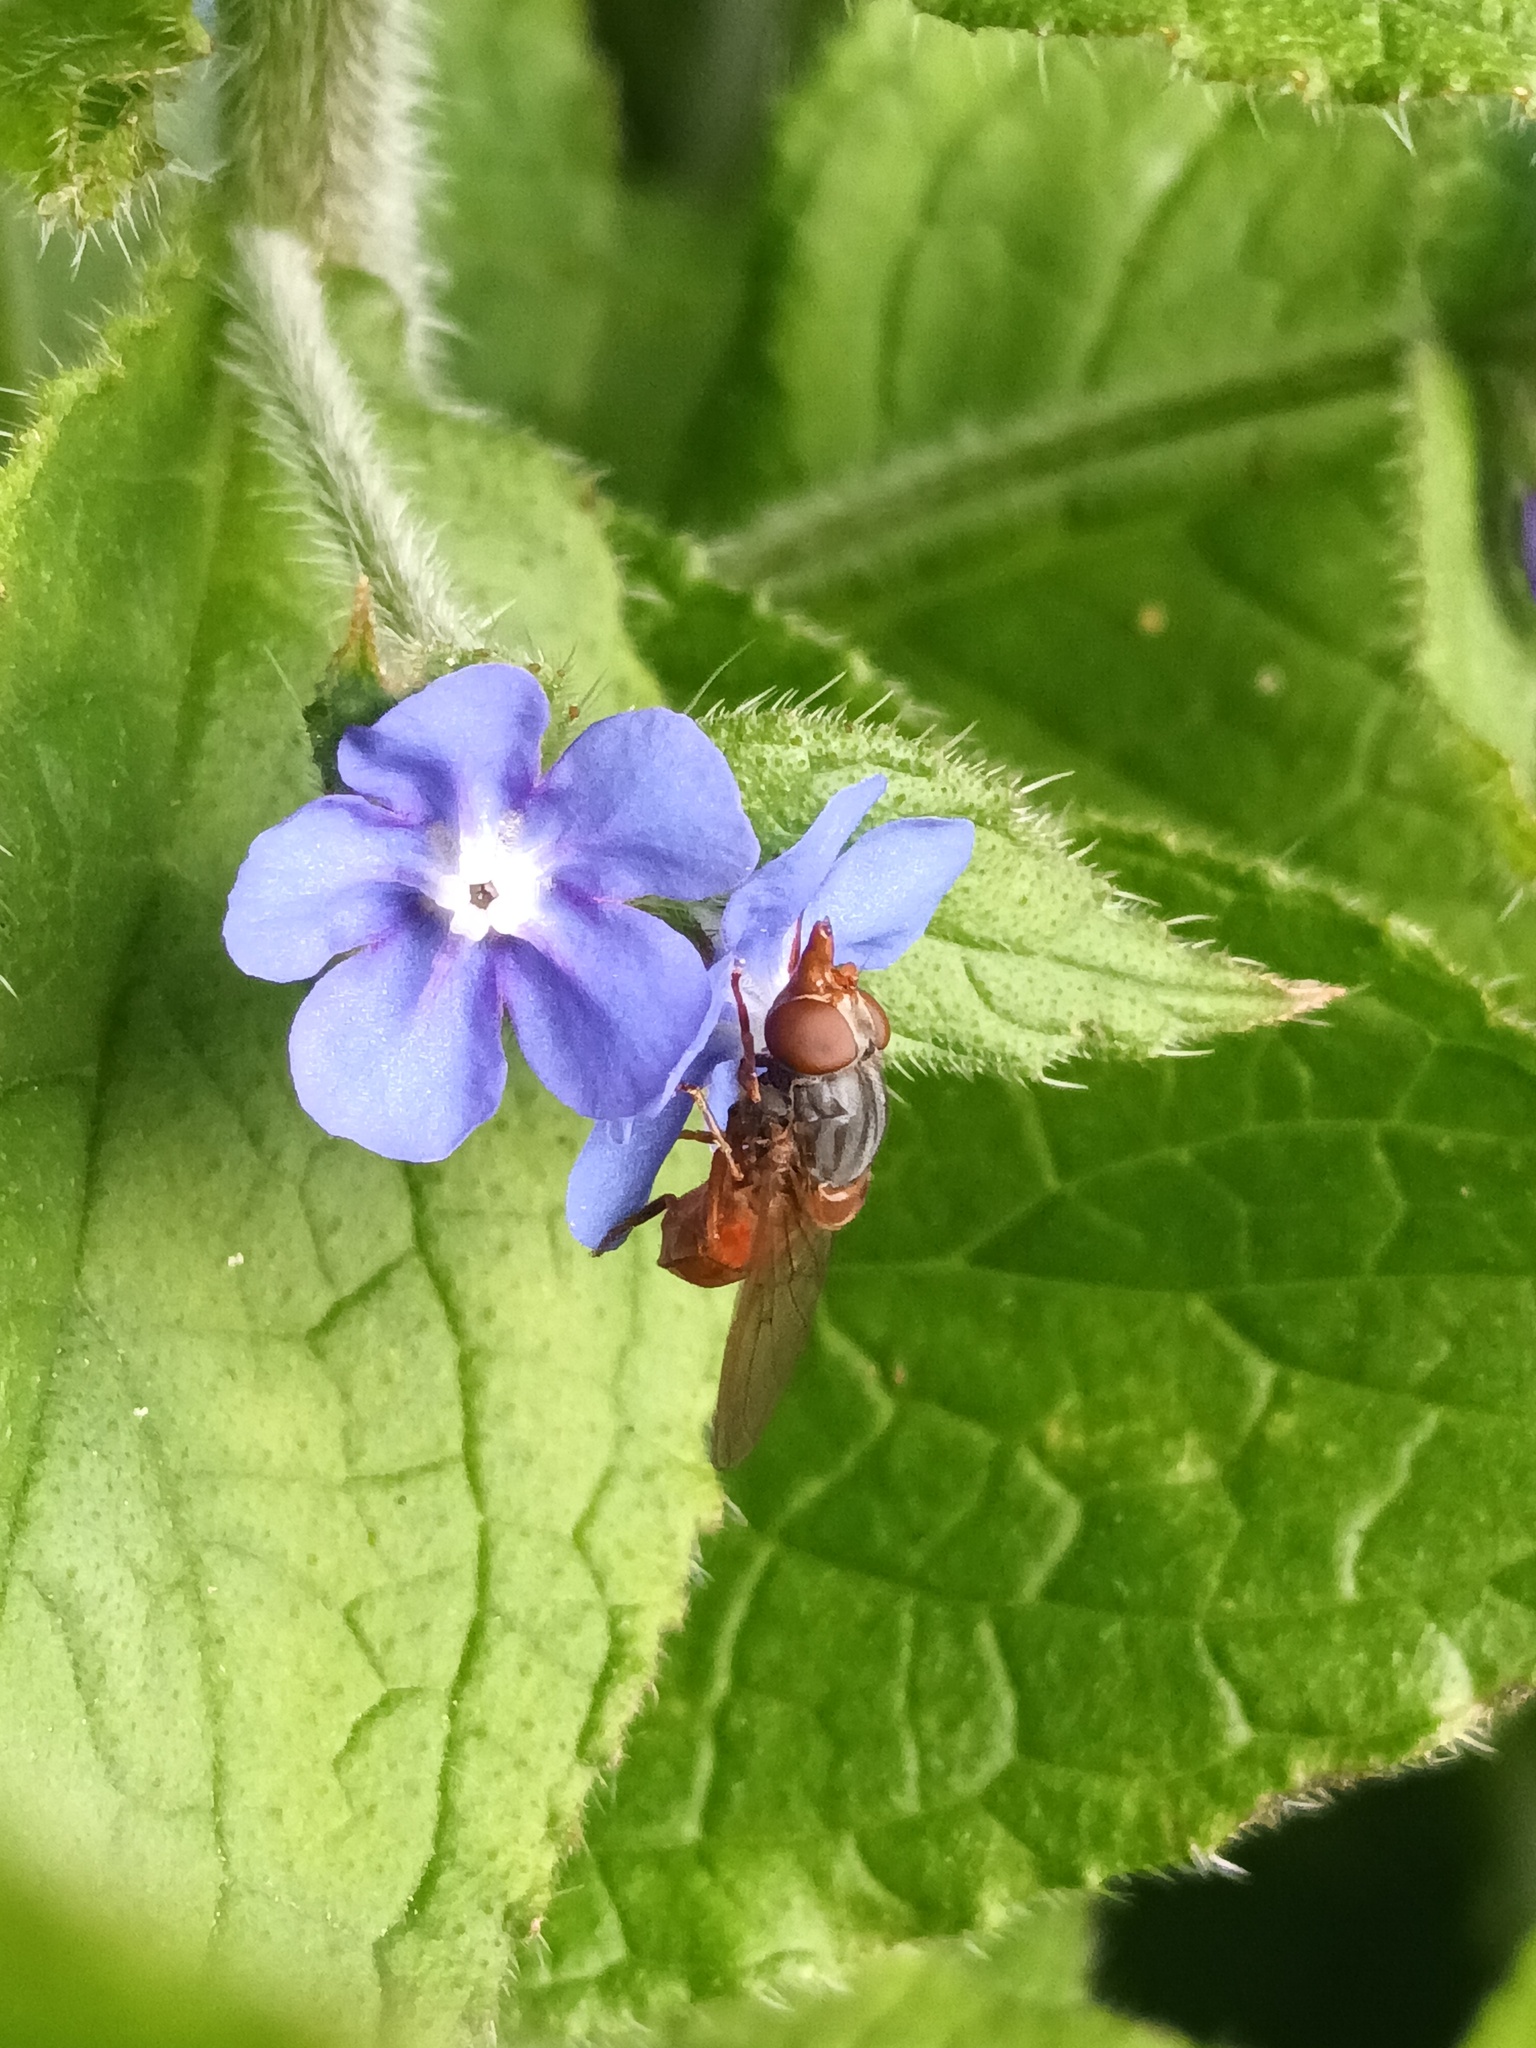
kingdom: Animalia
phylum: Arthropoda
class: Insecta
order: Diptera
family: Syrphidae
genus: Rhingia
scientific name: Rhingia rostrata
